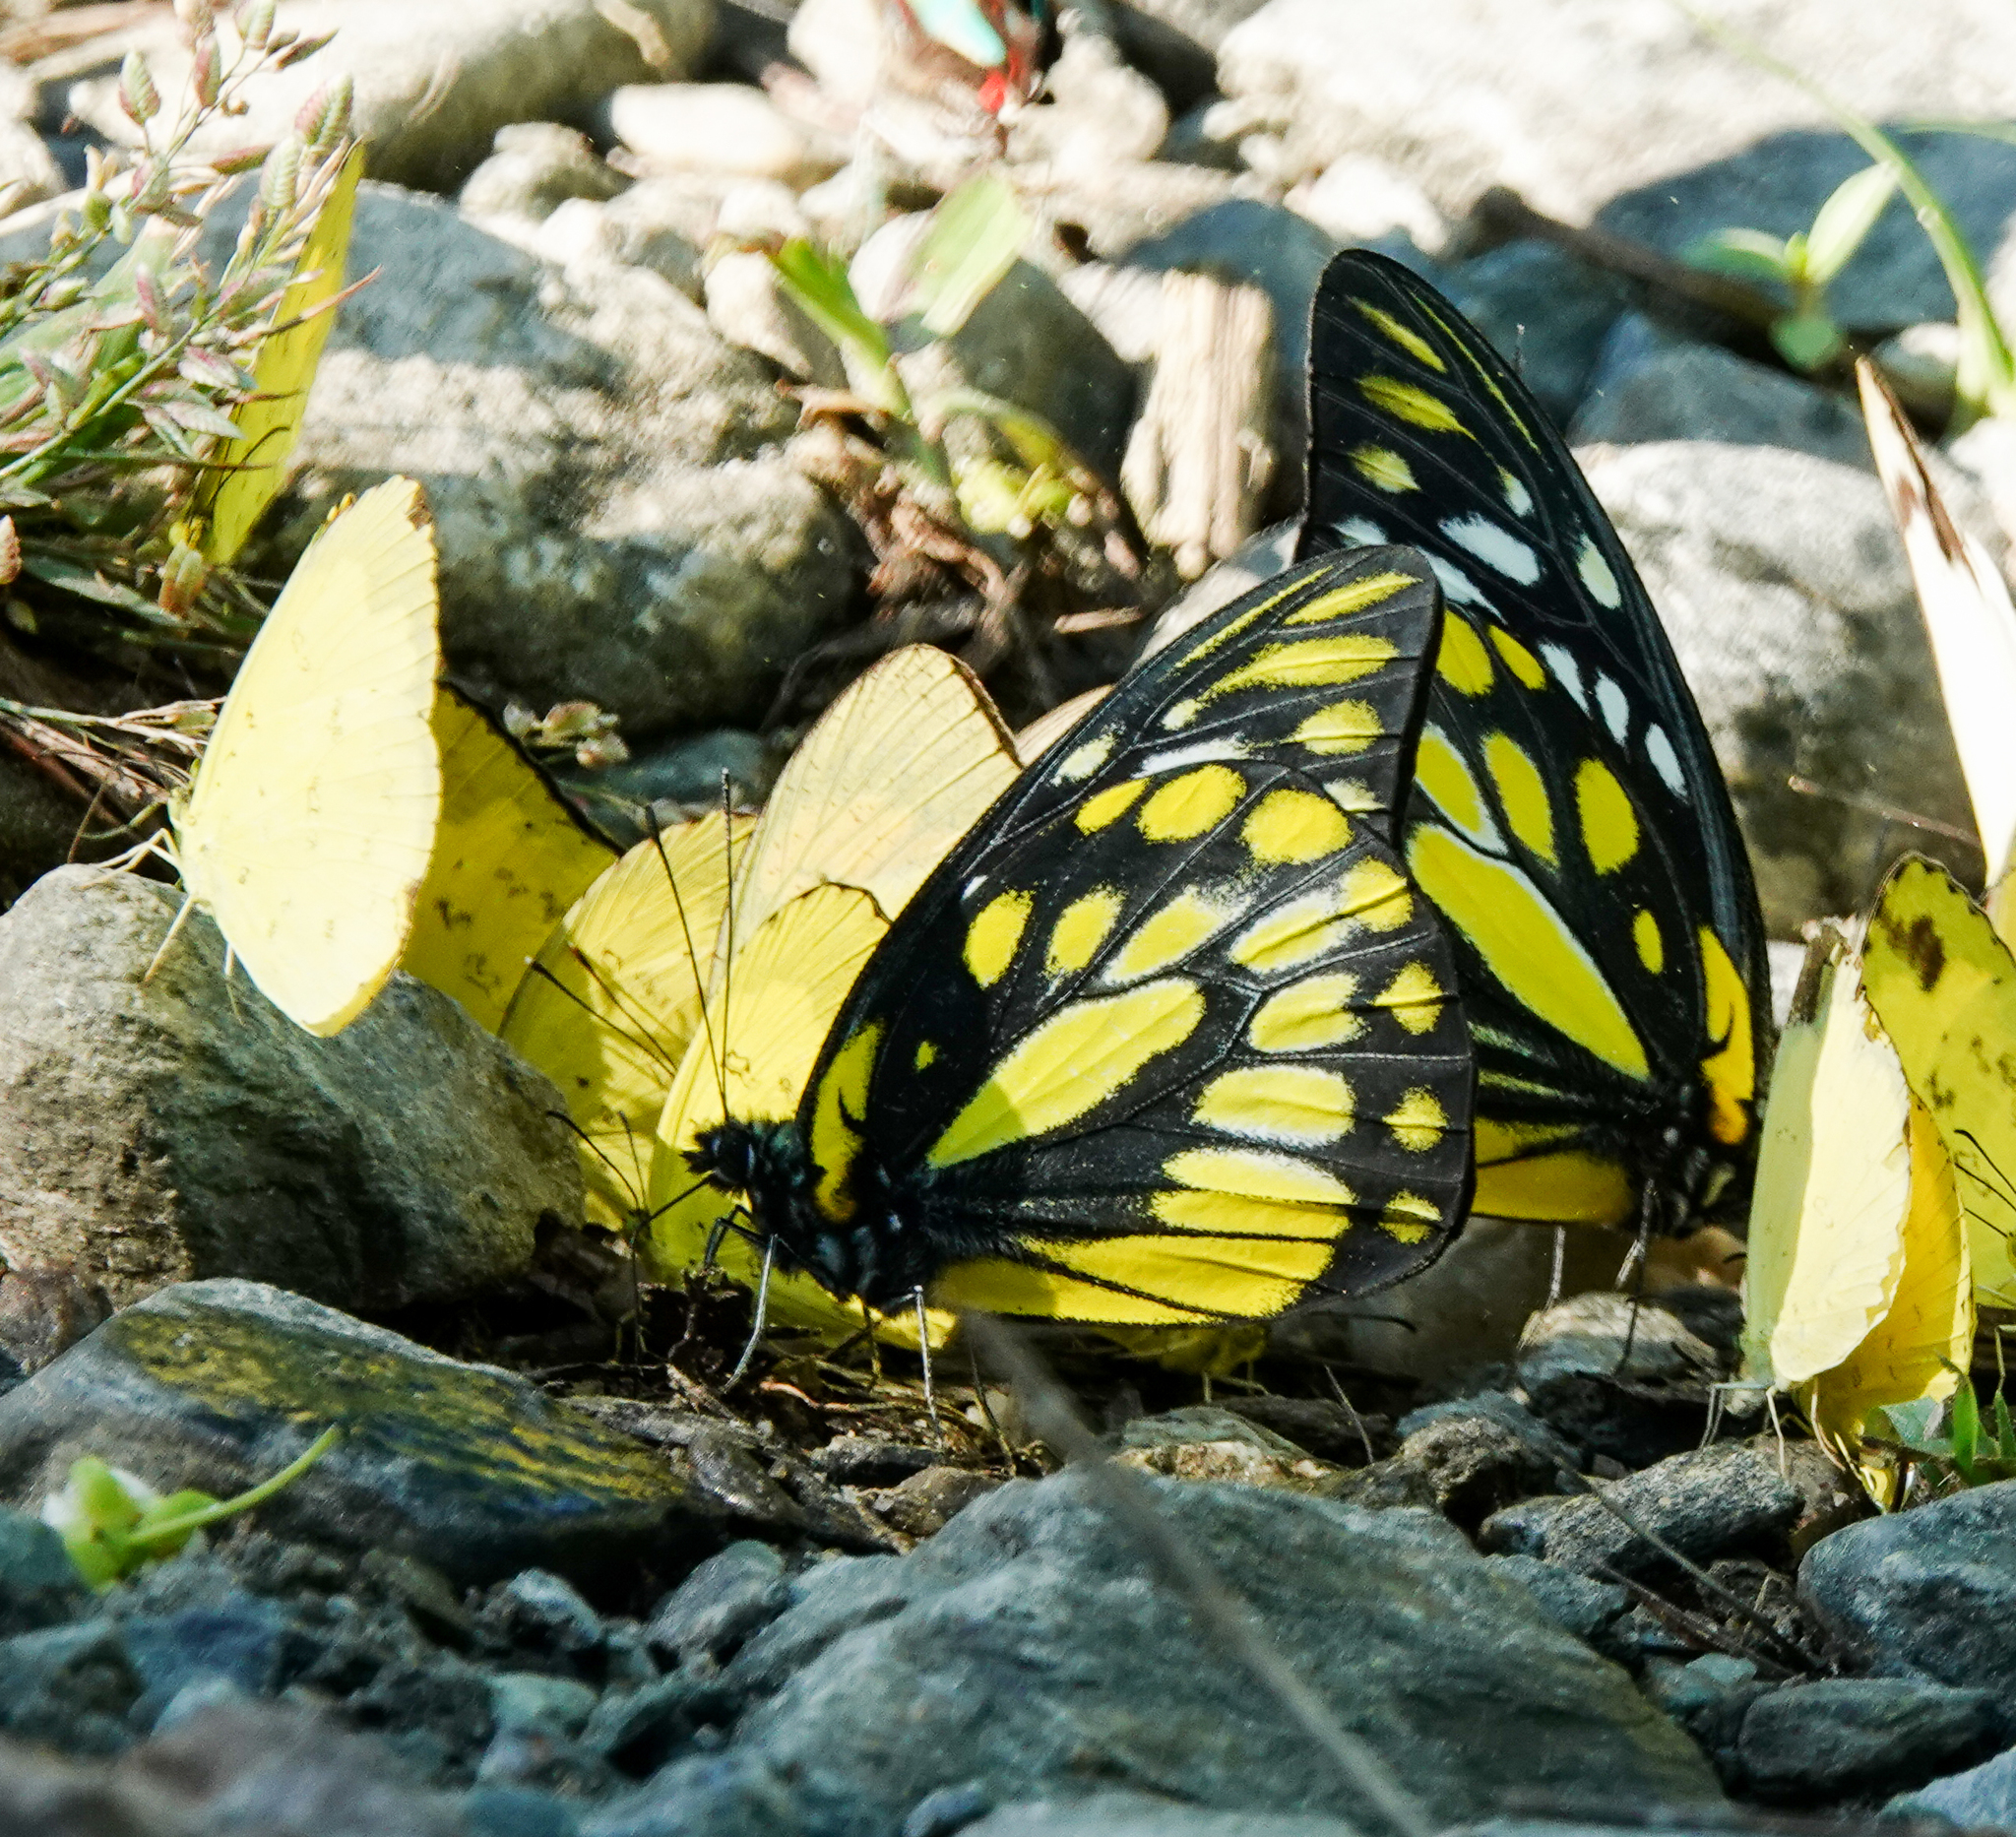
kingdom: Animalia
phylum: Arthropoda
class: Insecta
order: Lepidoptera
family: Pieridae
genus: Prioneris
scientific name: Prioneris thestylis
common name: Spotted sawtooth
